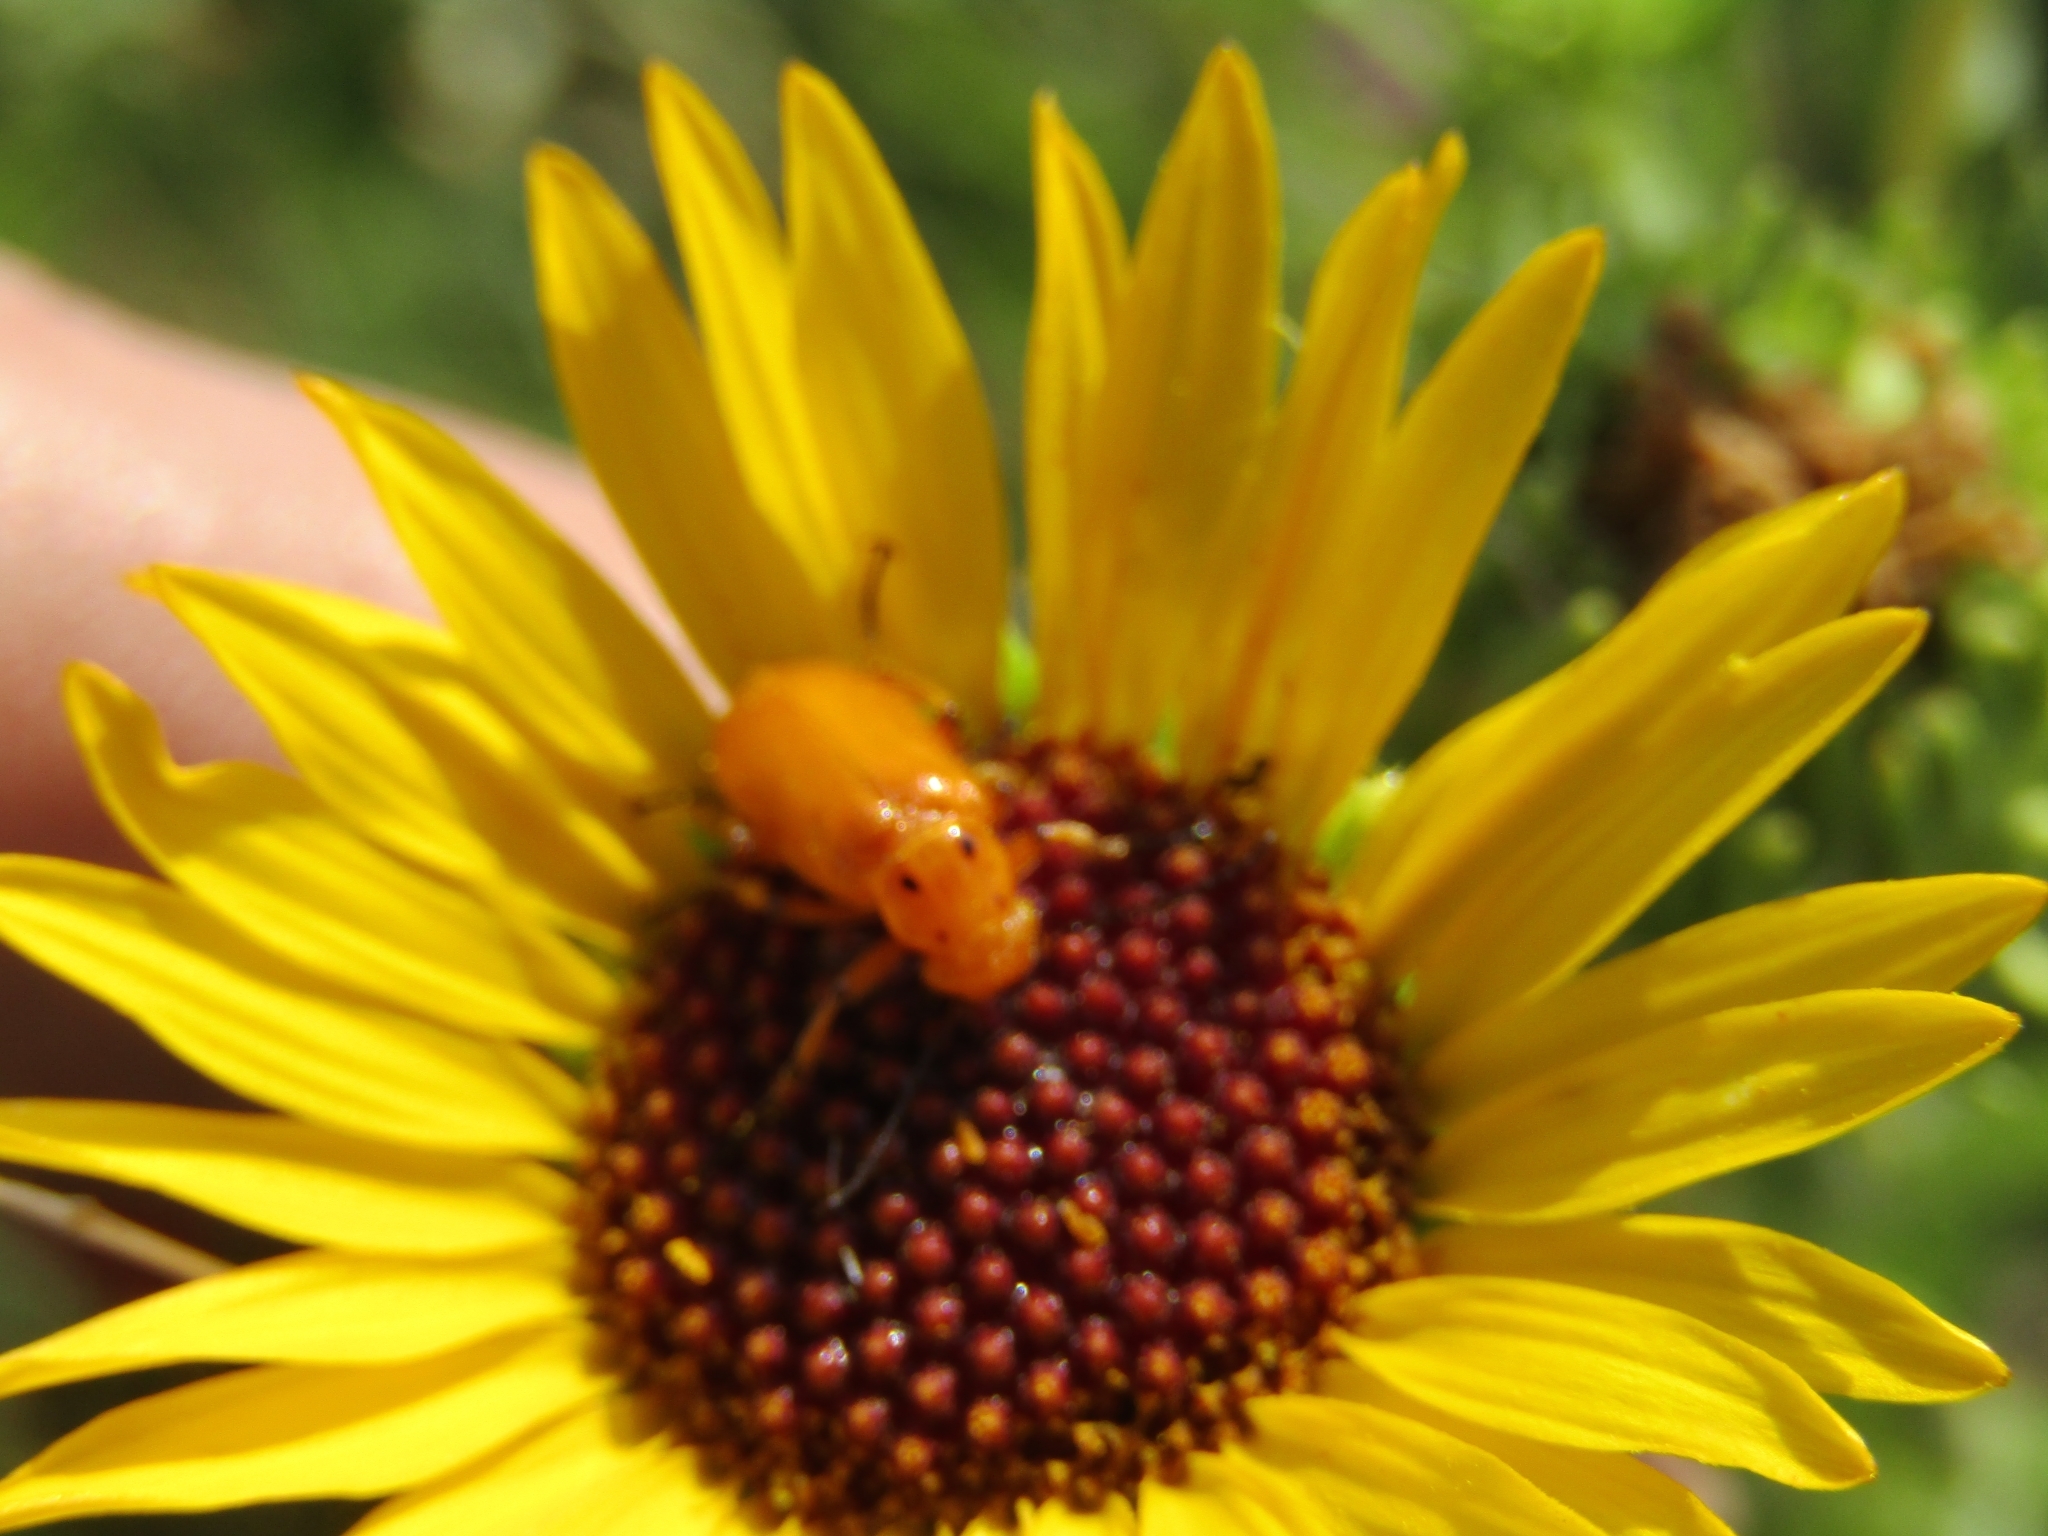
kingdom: Animalia
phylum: Arthropoda
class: Insecta
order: Coleoptera
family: Meloidae
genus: Nemognatha
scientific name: Nemognatha
